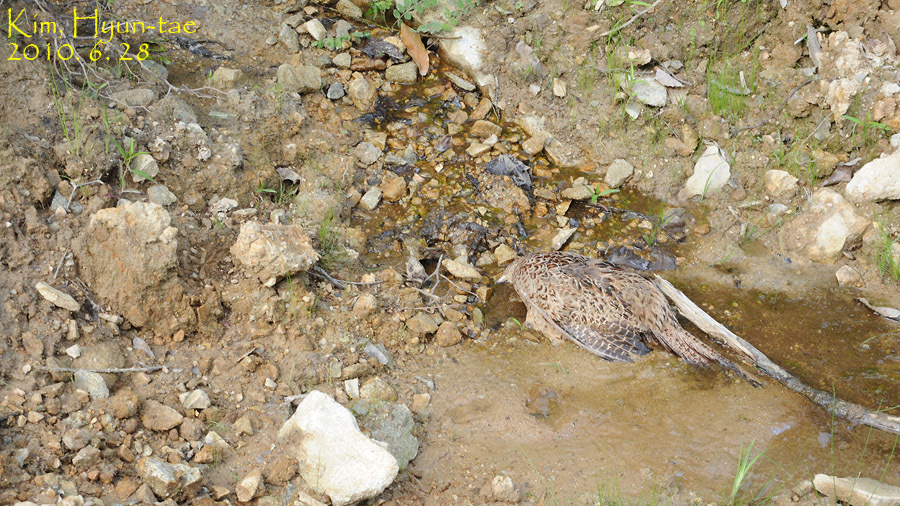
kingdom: Animalia
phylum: Chordata
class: Aves
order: Galliformes
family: Phasianidae
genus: Phasianus
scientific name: Phasianus colchicus
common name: Common pheasant
